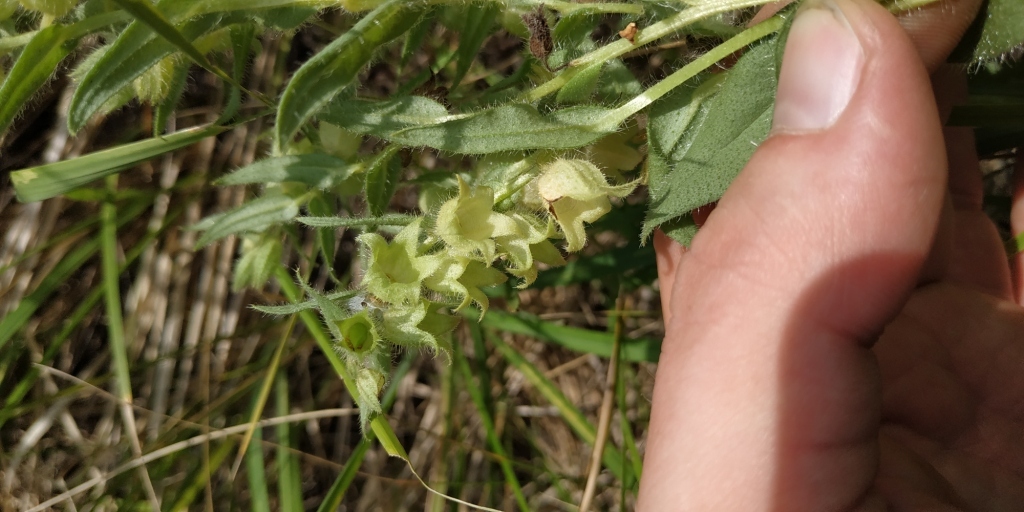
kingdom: Plantae
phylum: Tracheophyta
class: Magnoliopsida
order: Boraginales
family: Boraginaceae
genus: Nonea
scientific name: Nonea pulla
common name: Brown nonea
